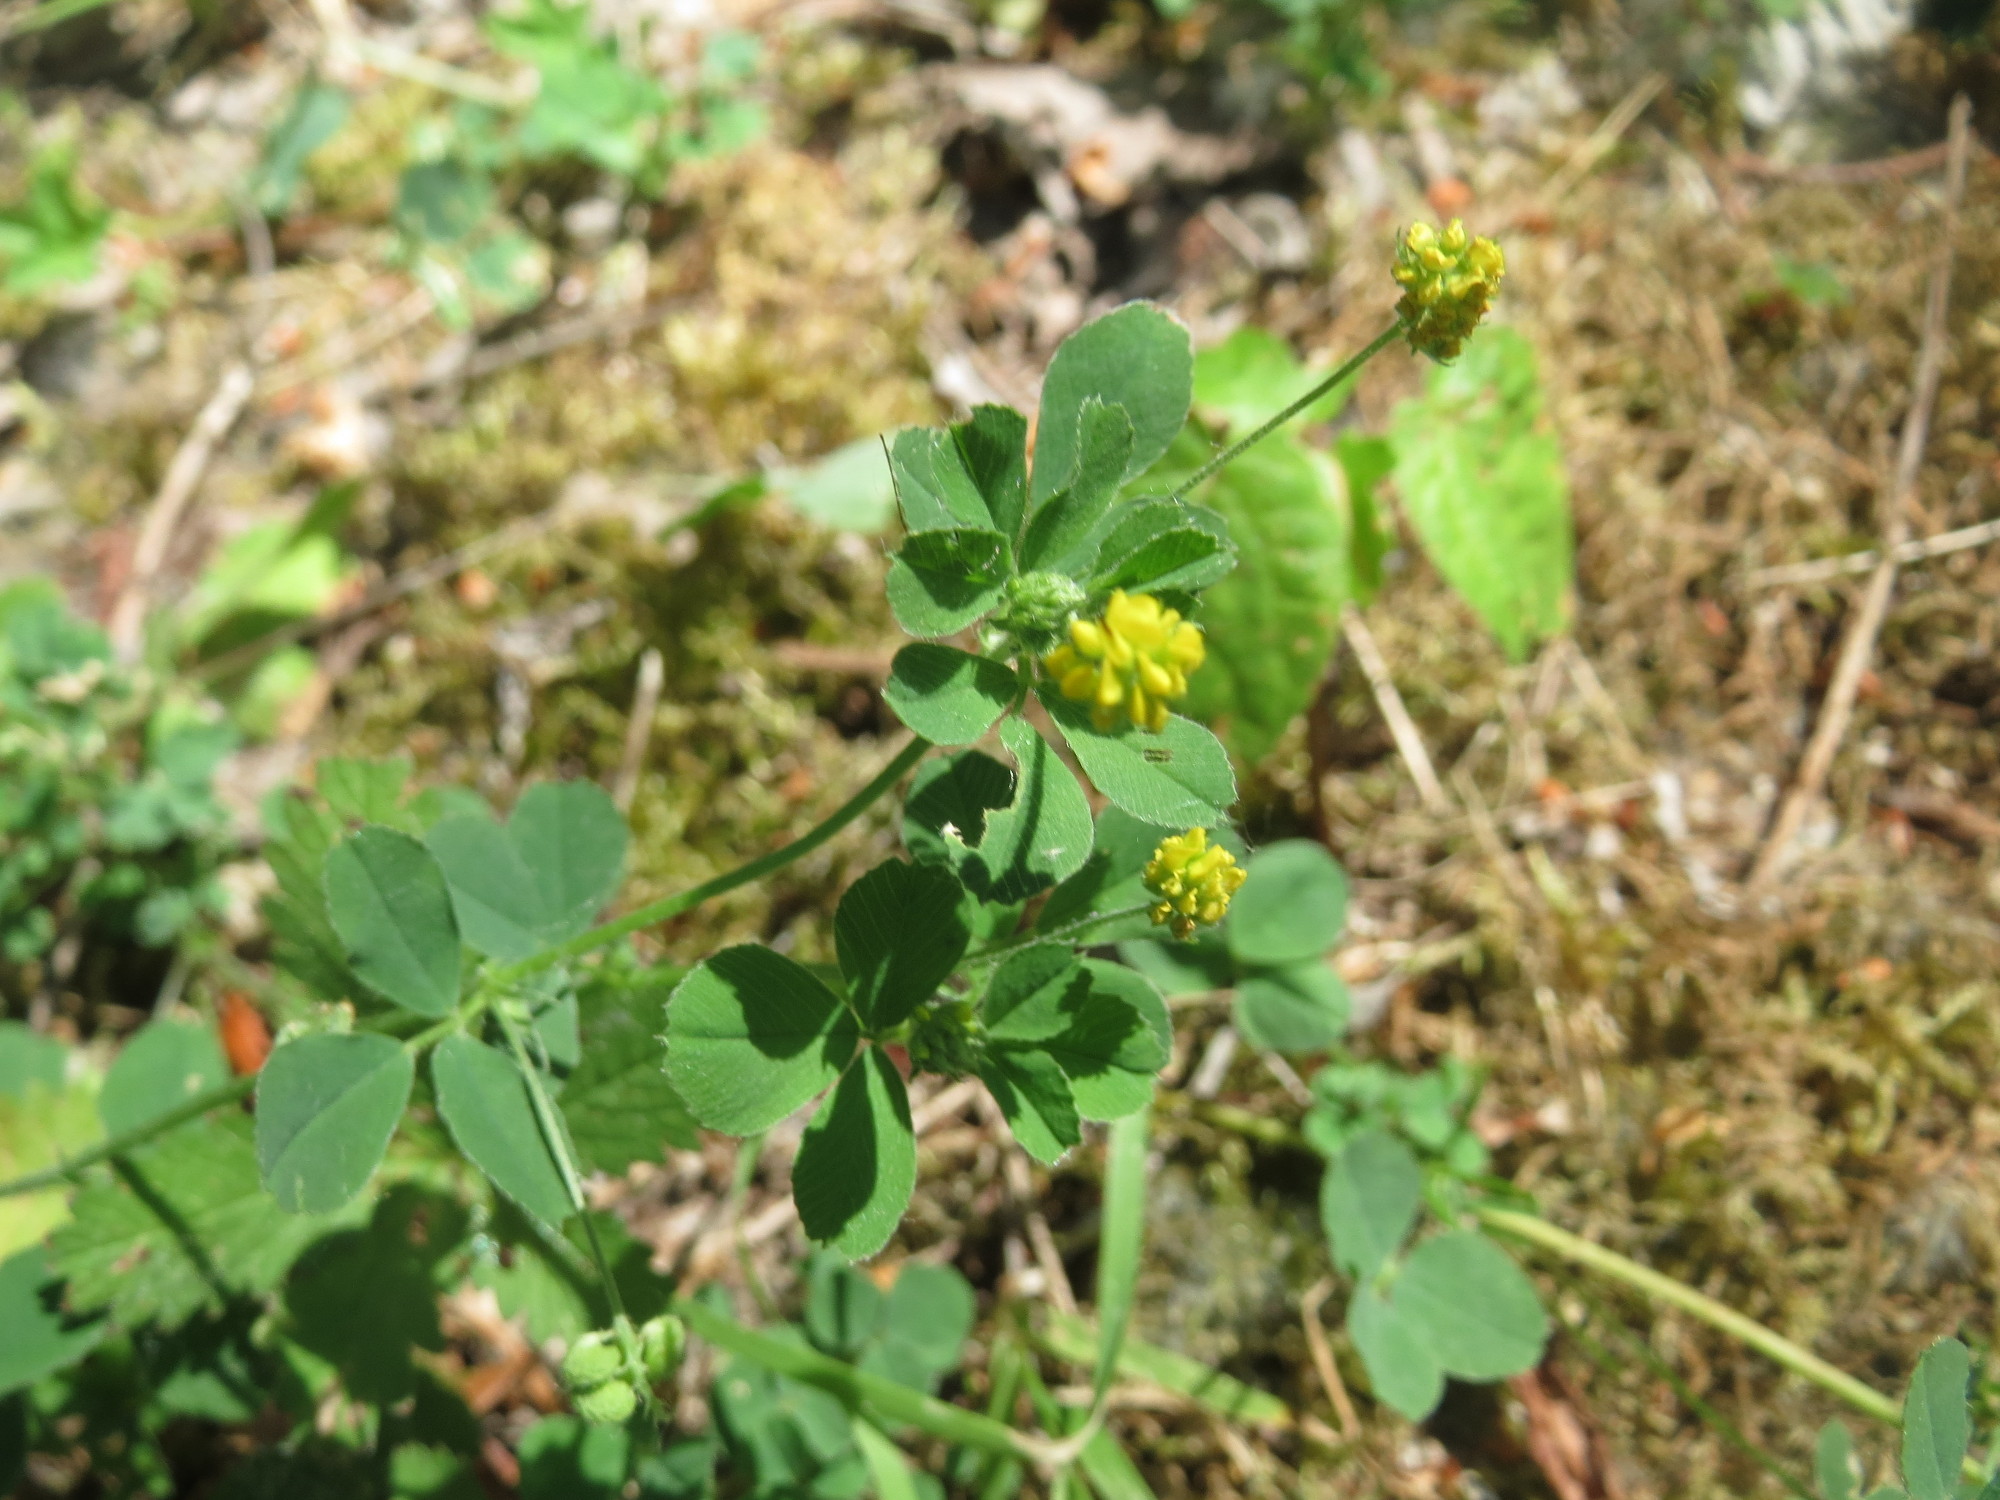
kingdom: Plantae
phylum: Tracheophyta
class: Magnoliopsida
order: Fabales
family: Fabaceae
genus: Medicago
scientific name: Medicago lupulina
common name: Black medick
